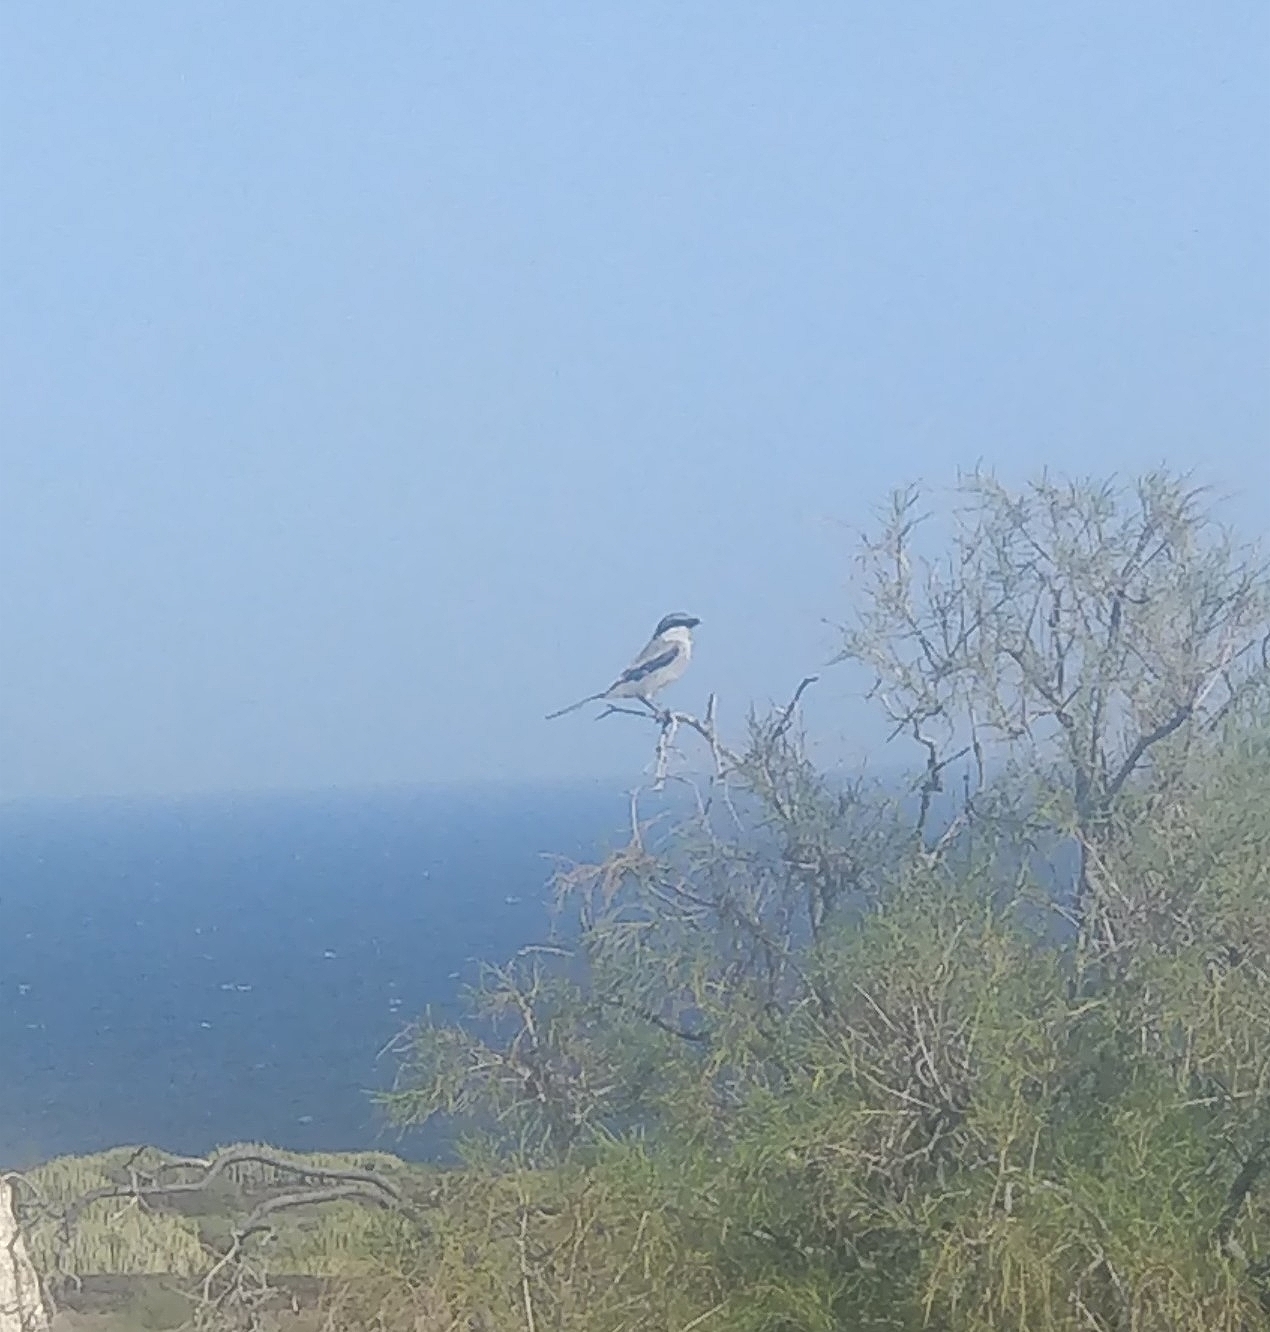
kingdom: Animalia
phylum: Chordata
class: Aves
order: Passeriformes
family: Laniidae
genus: Lanius
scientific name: Lanius excubitor
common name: Great grey shrike
